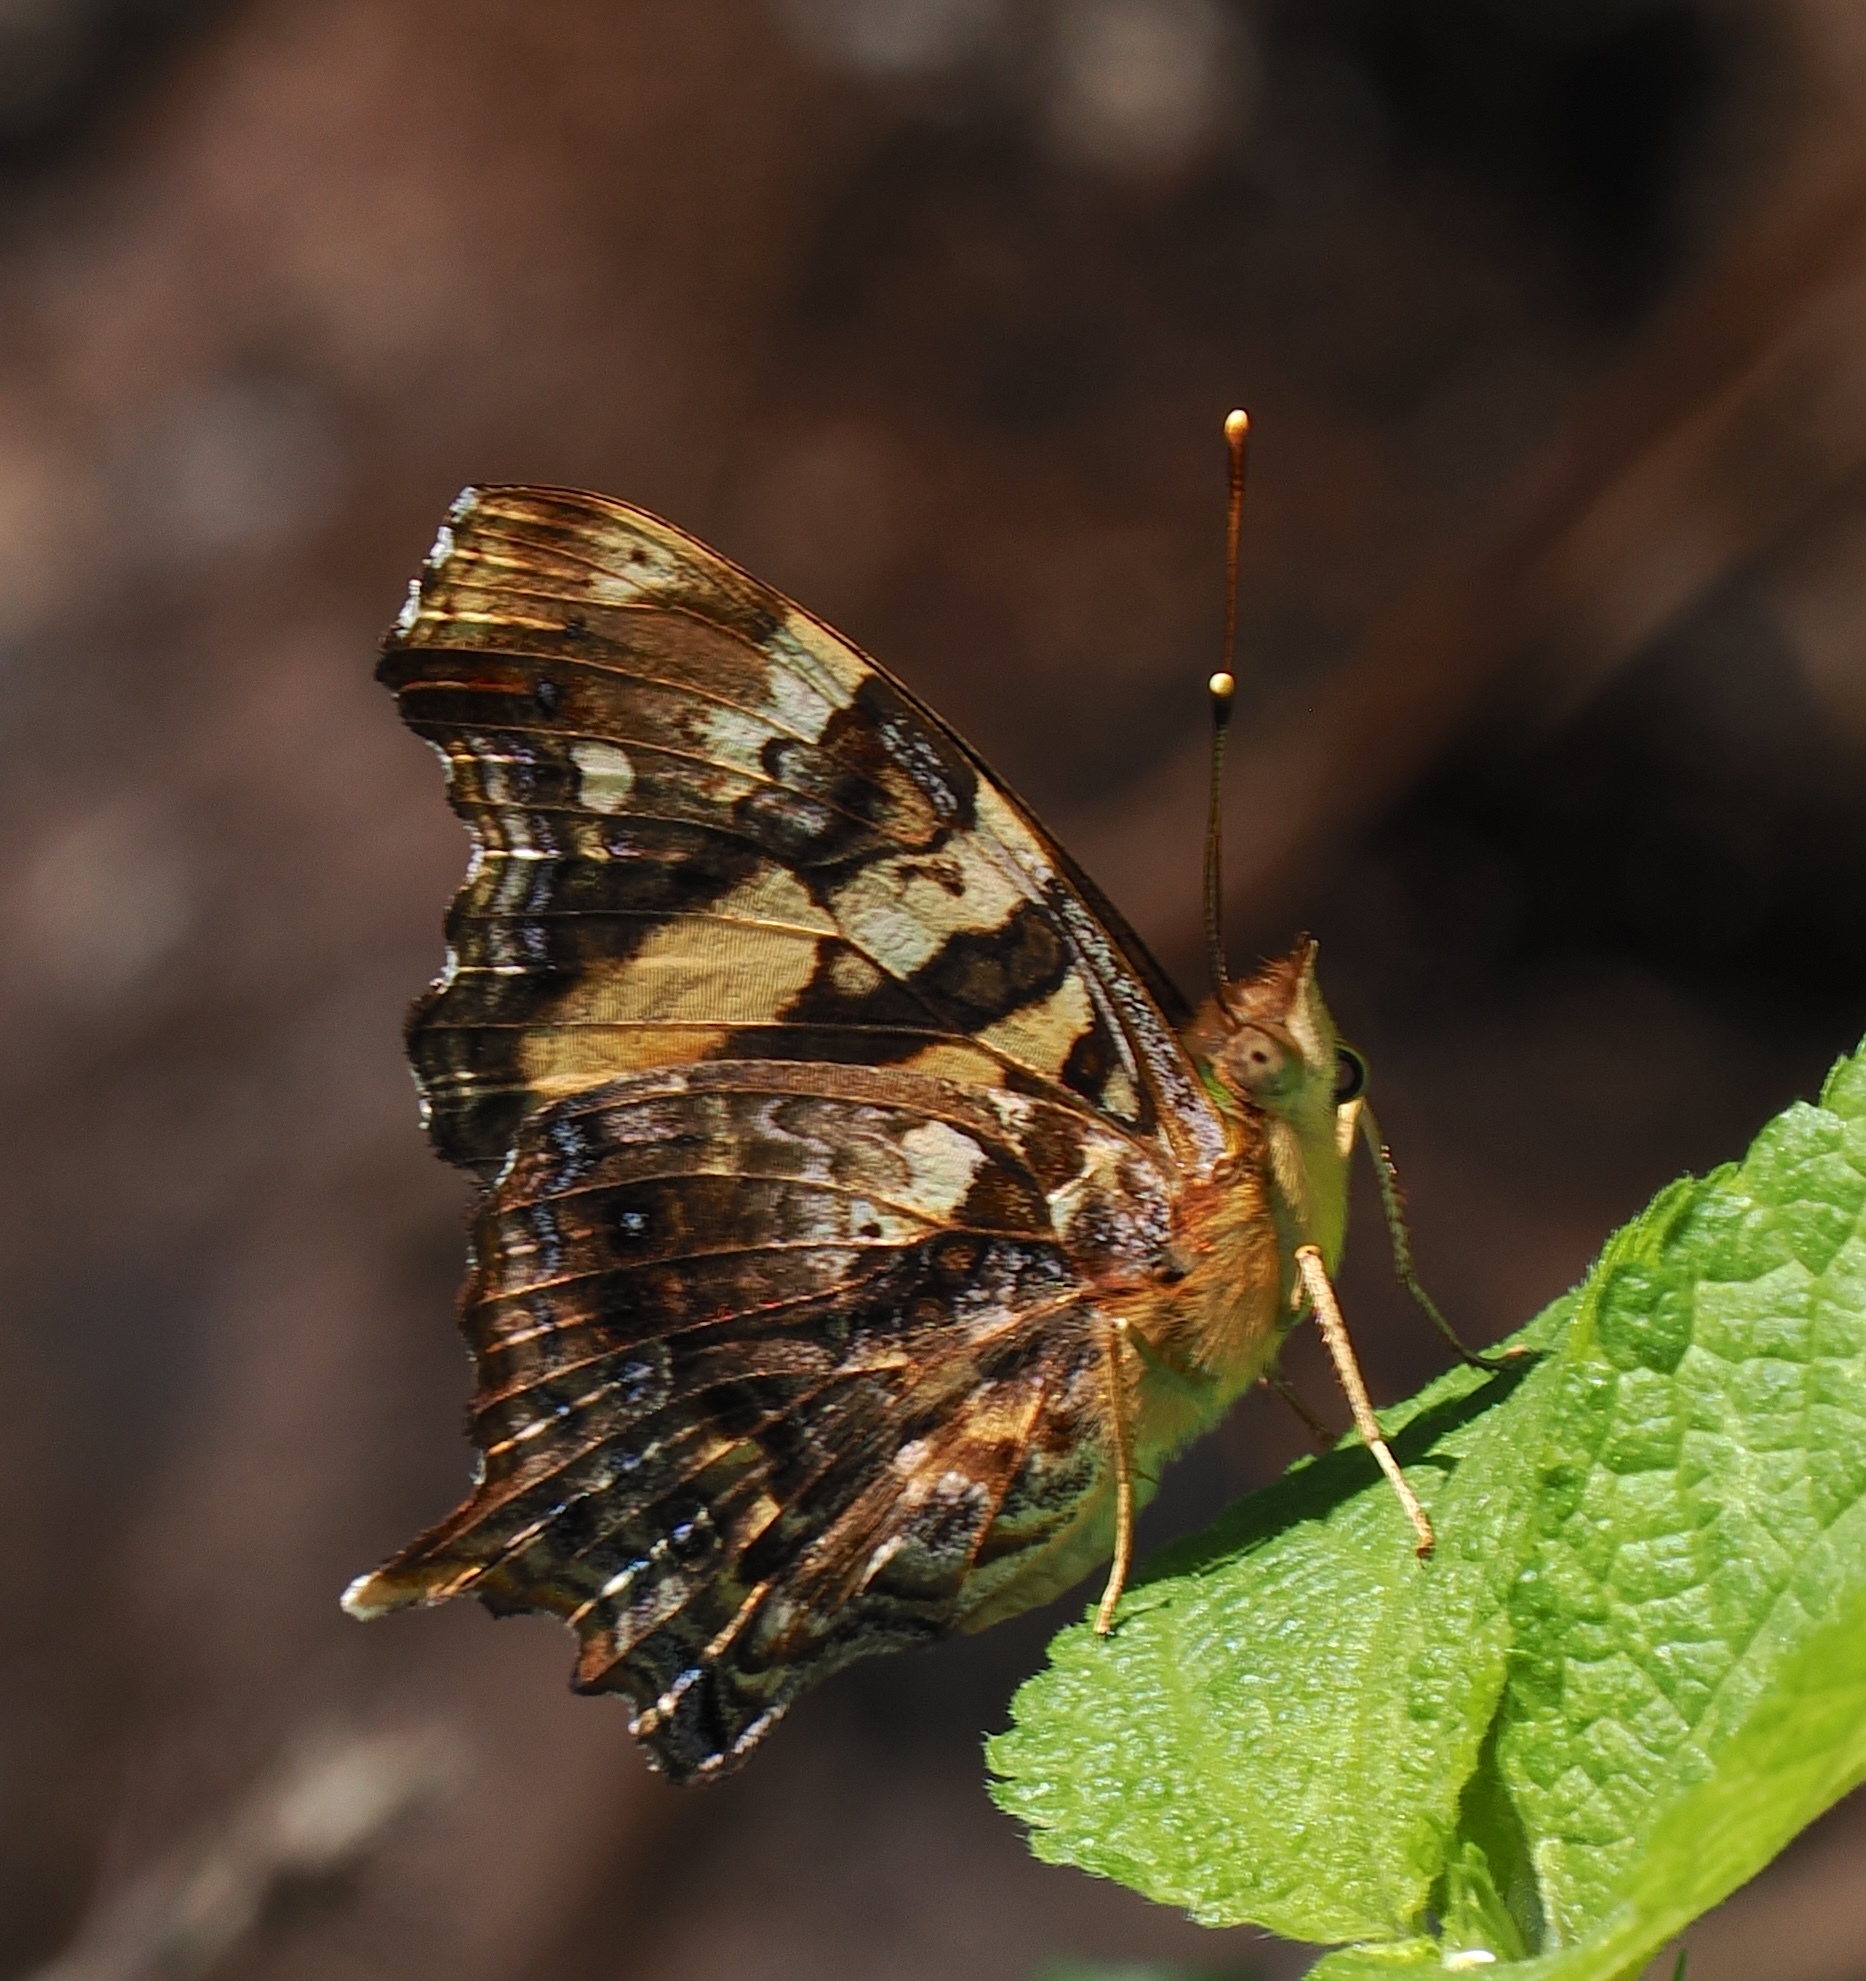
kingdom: Animalia
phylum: Arthropoda
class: Insecta
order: Lepidoptera
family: Nymphalidae
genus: Hypanartia
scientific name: Hypanartia bella
